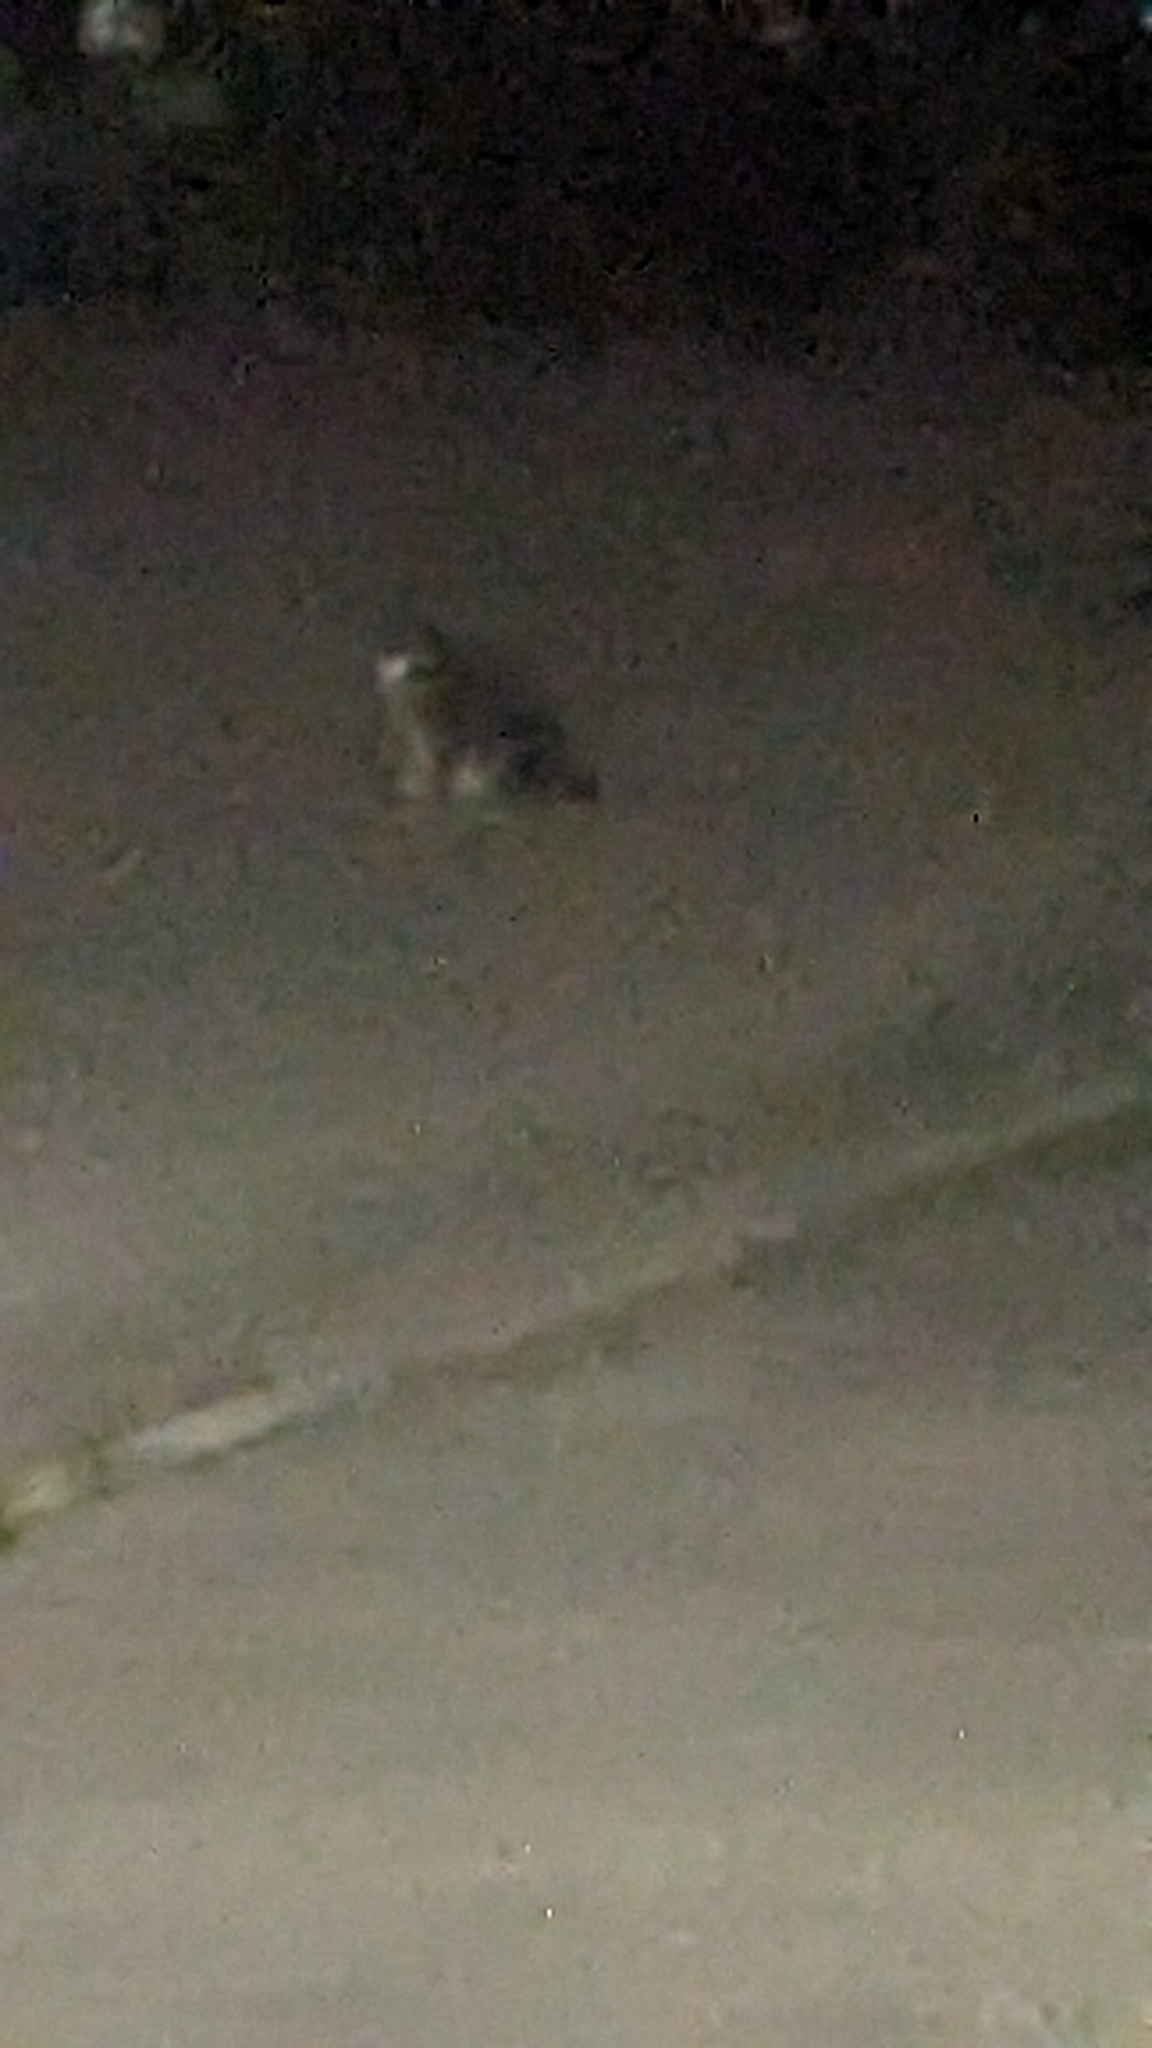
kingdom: Animalia
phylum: Chordata
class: Mammalia
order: Carnivora
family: Felidae
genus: Felis
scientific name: Felis catus
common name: Domestic cat
